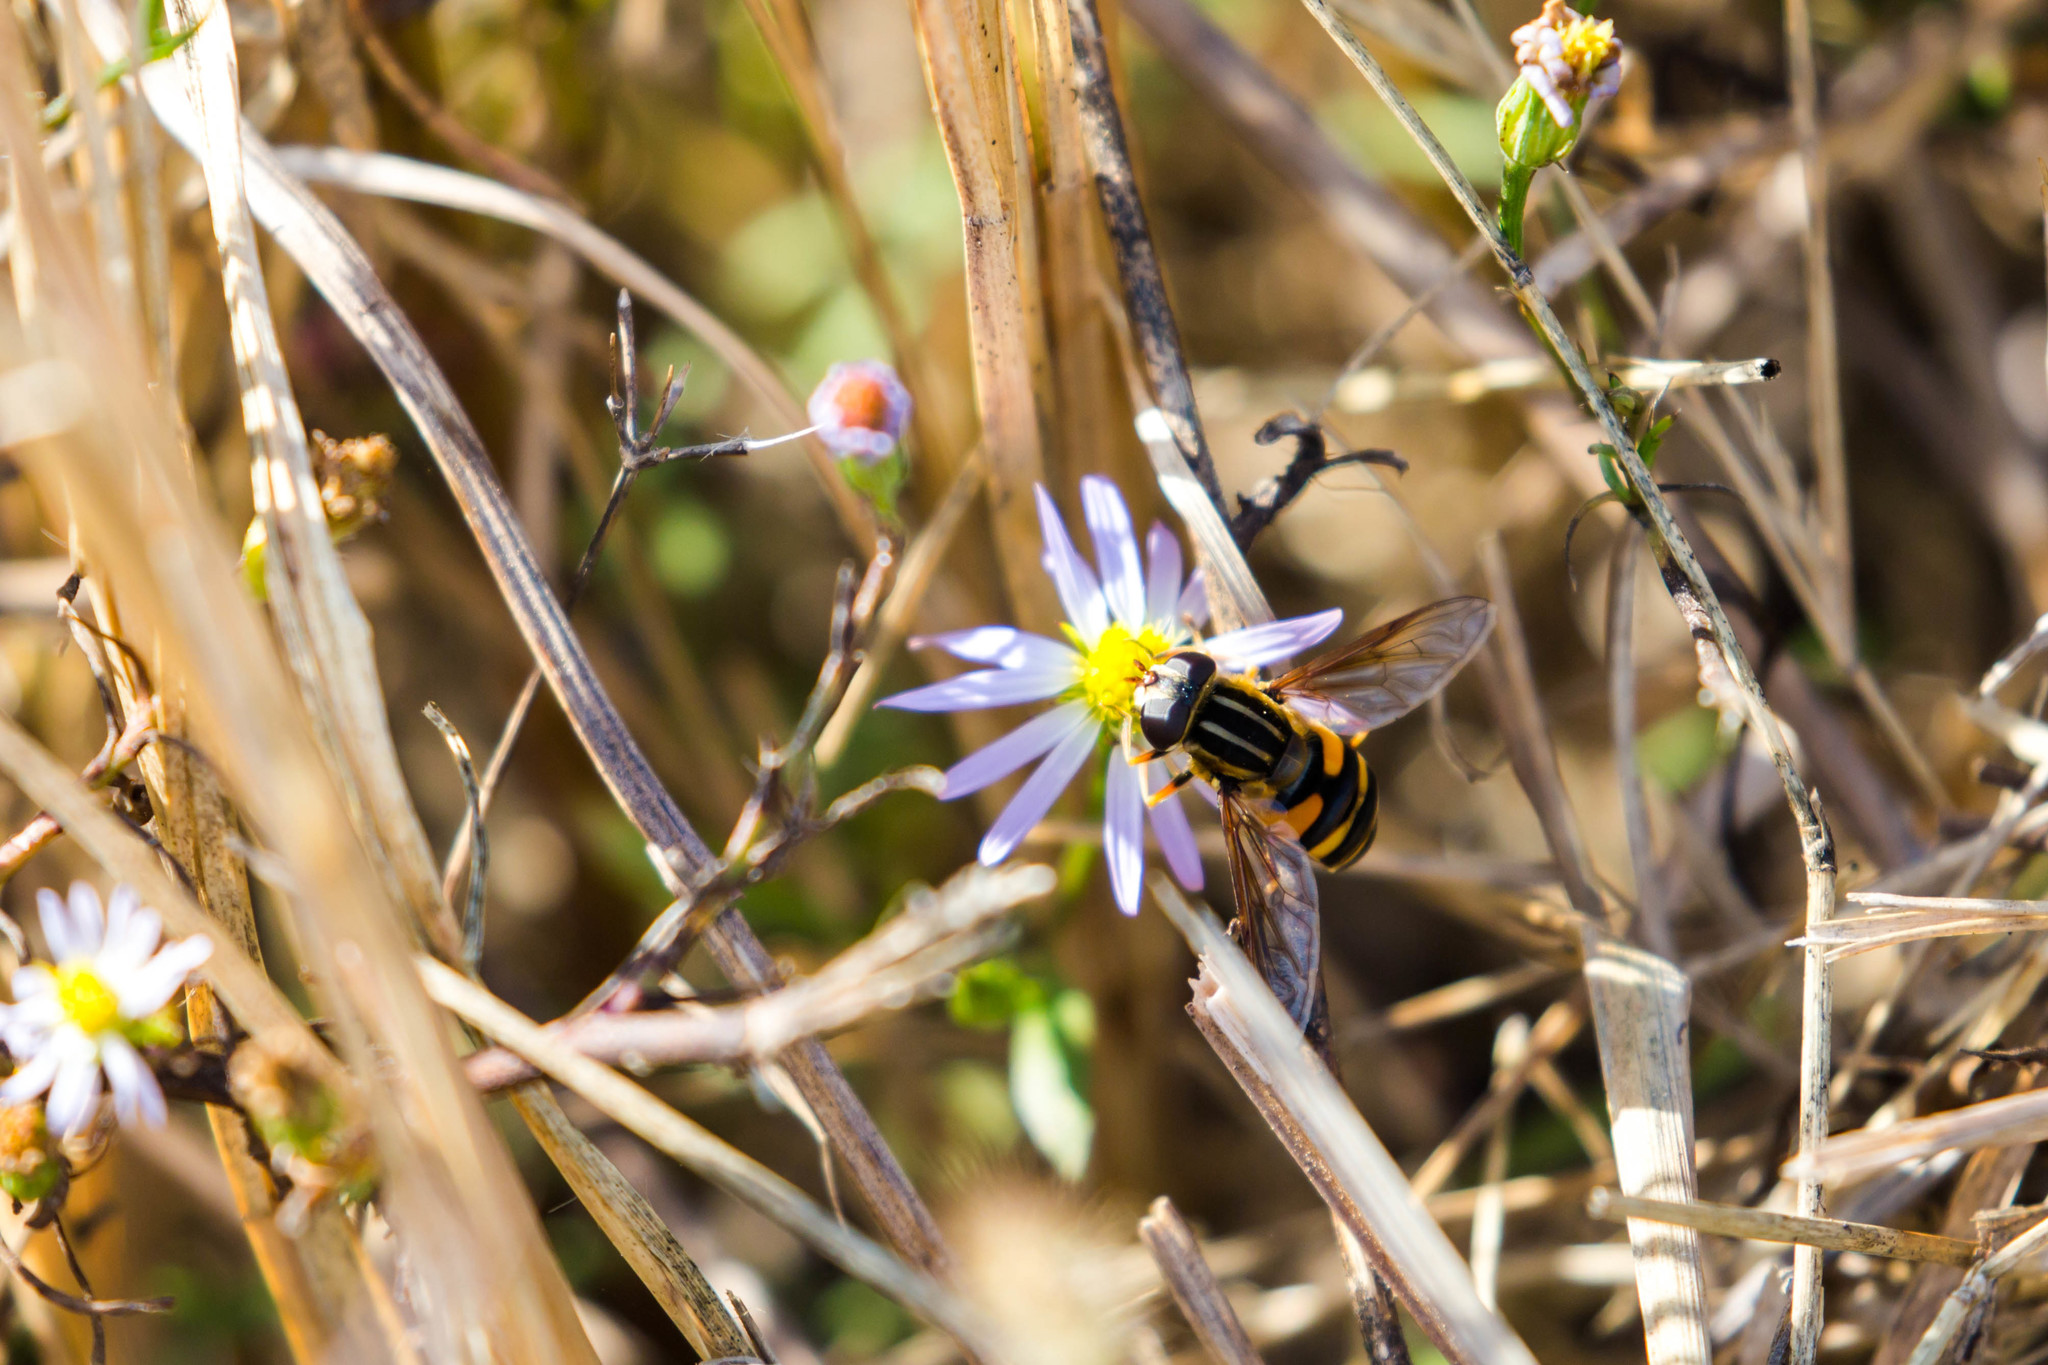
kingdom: Animalia
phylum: Arthropoda
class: Insecta
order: Diptera
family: Syrphidae
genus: Helophilus
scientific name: Helophilus fasciatus
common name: Narrow-headed marsh fly
